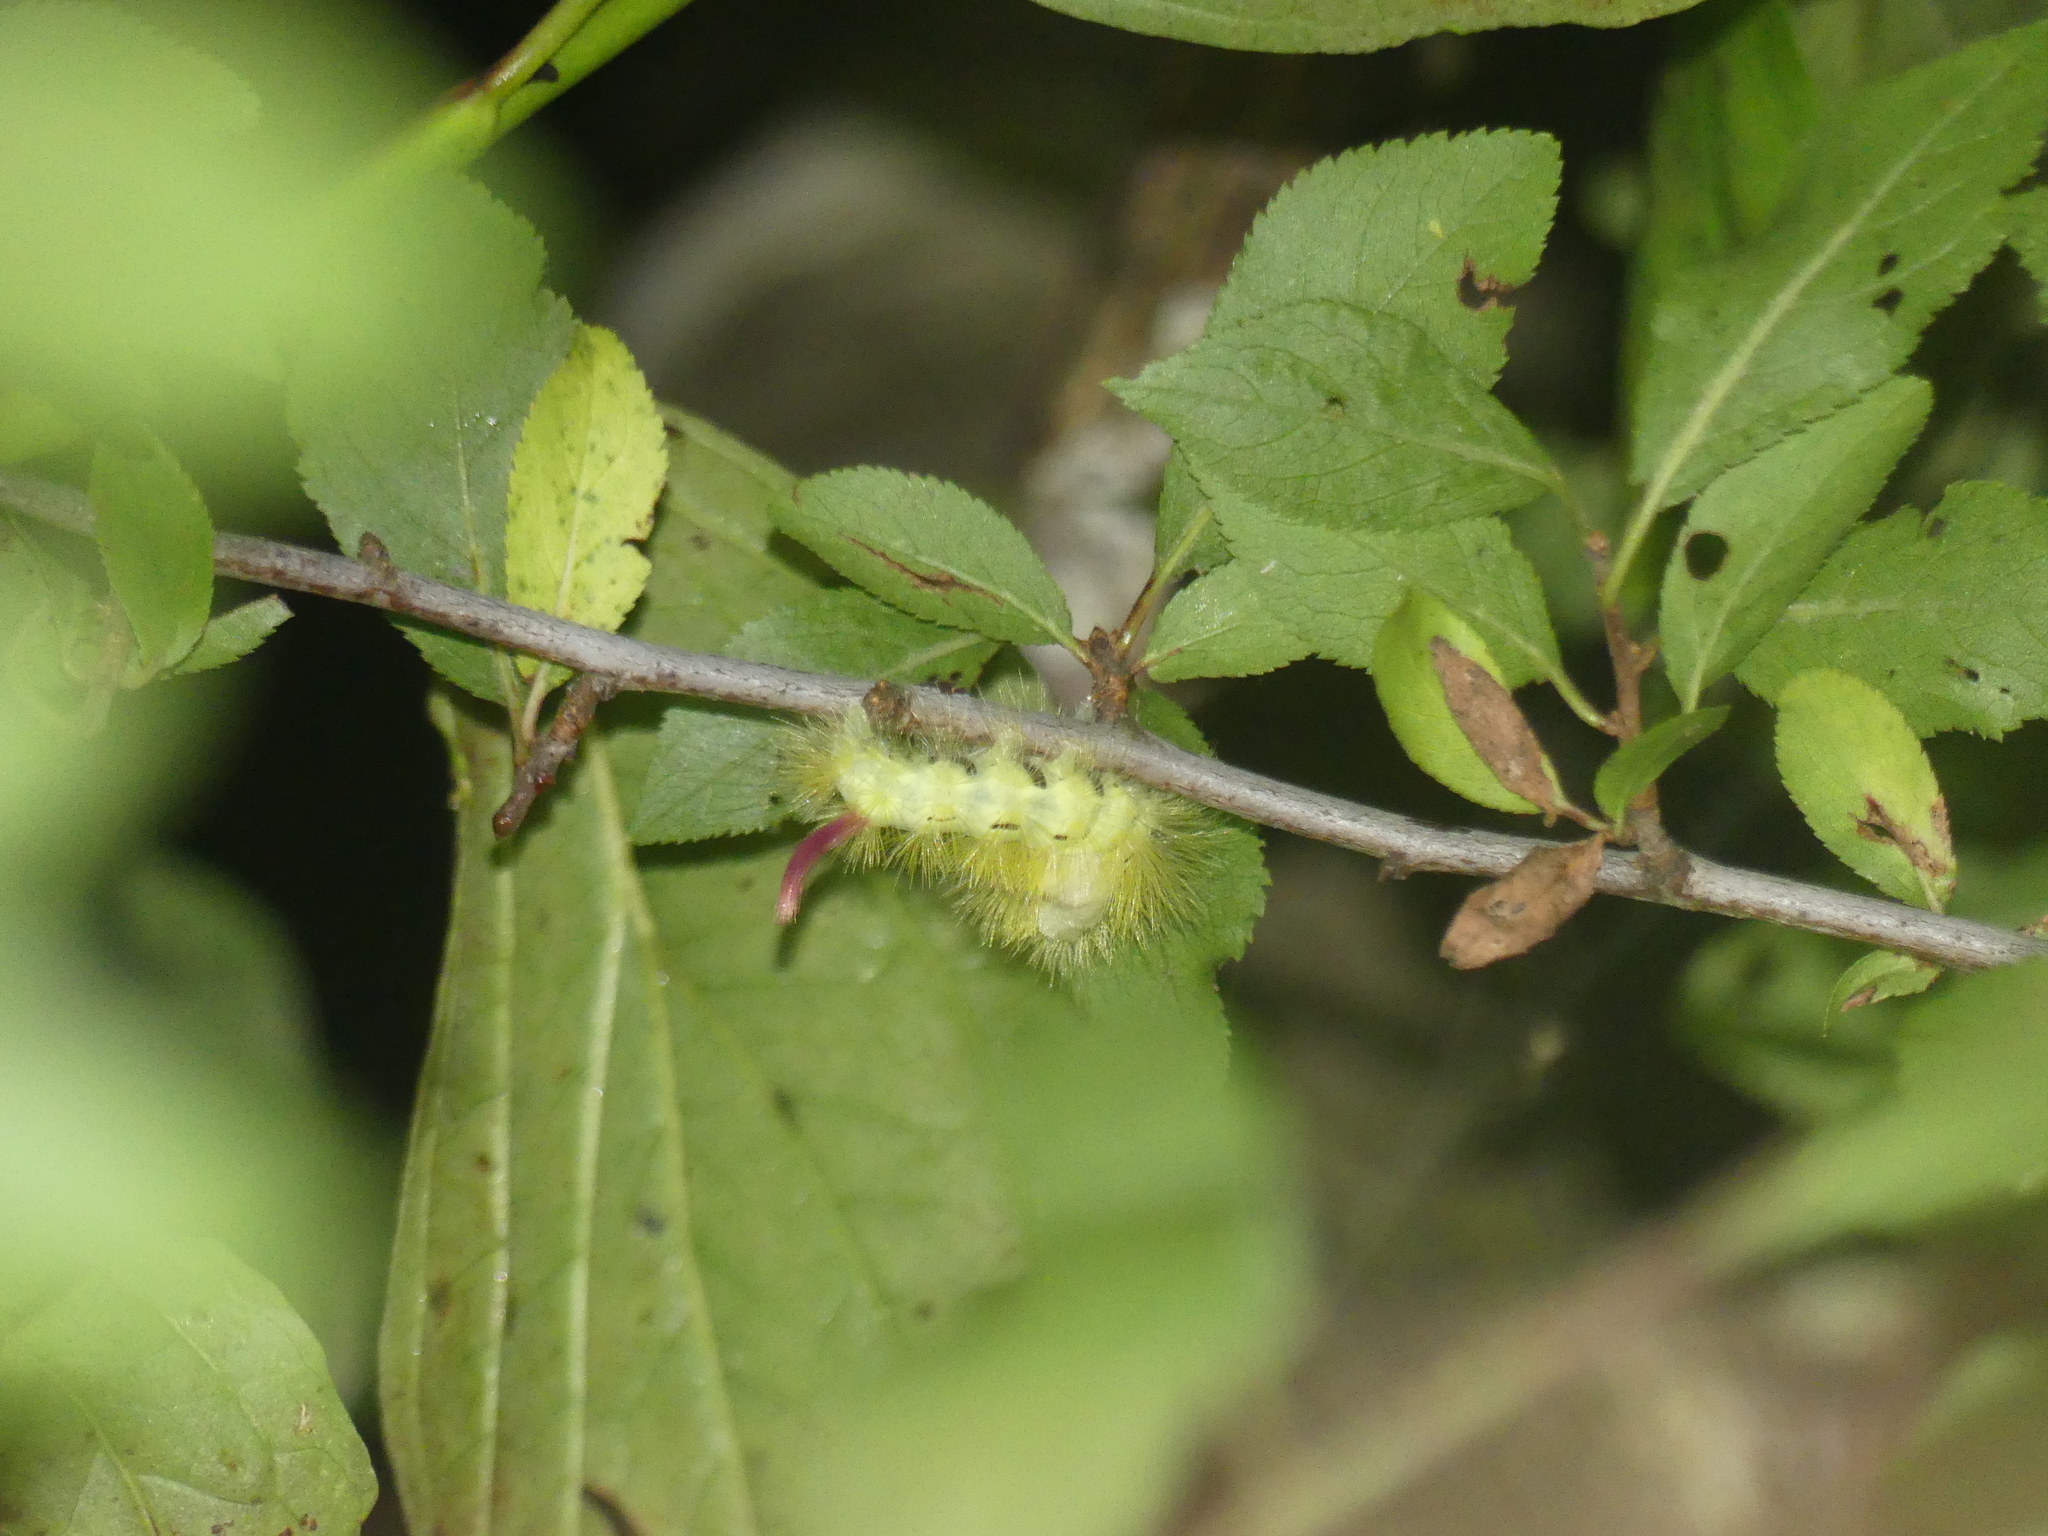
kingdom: Animalia
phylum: Arthropoda
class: Insecta
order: Lepidoptera
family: Erebidae
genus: Calliteara
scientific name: Calliteara pudibunda
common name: Pale tussock
